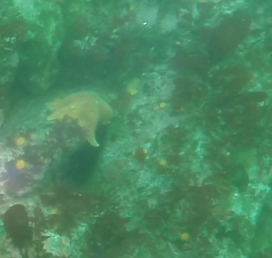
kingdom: Animalia
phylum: Echinodermata
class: Asteroidea
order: Valvatida
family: Asterinidae
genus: Patiria
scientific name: Patiria miniata
